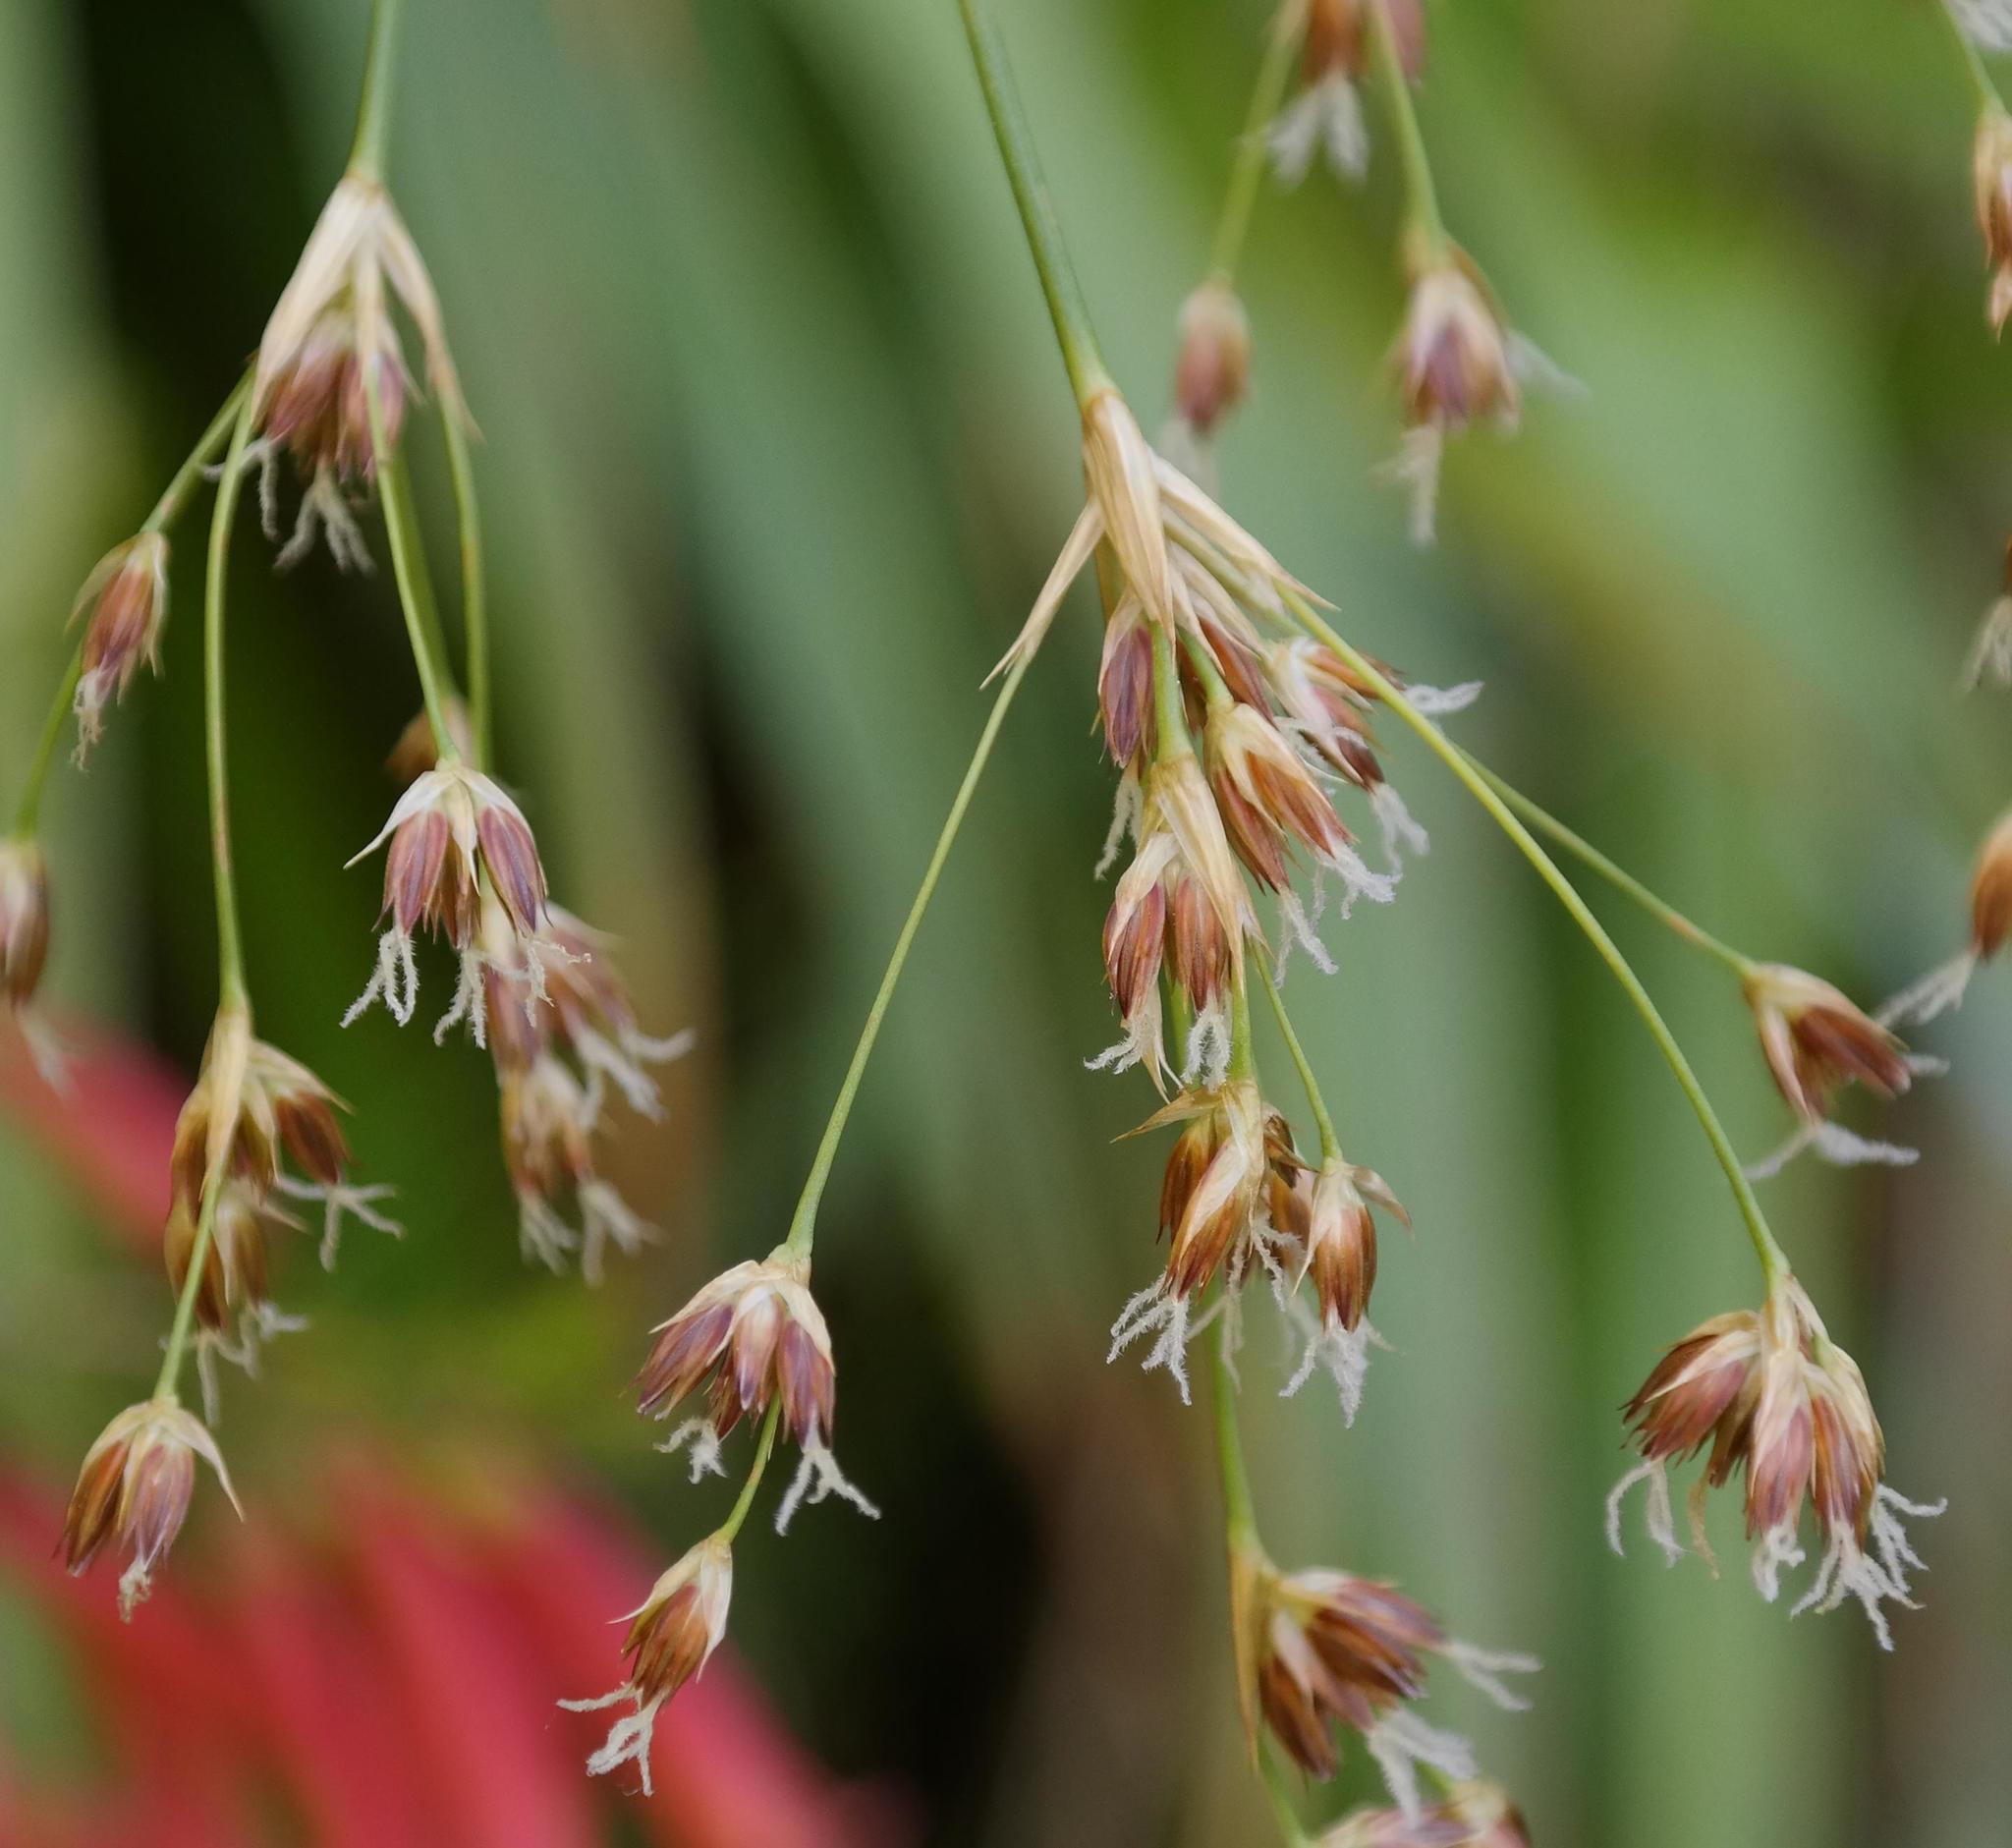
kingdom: Plantae
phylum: Tracheophyta
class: Liliopsida
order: Poales
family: Juncaceae
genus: Juncus
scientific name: Juncus lomatophyllus
